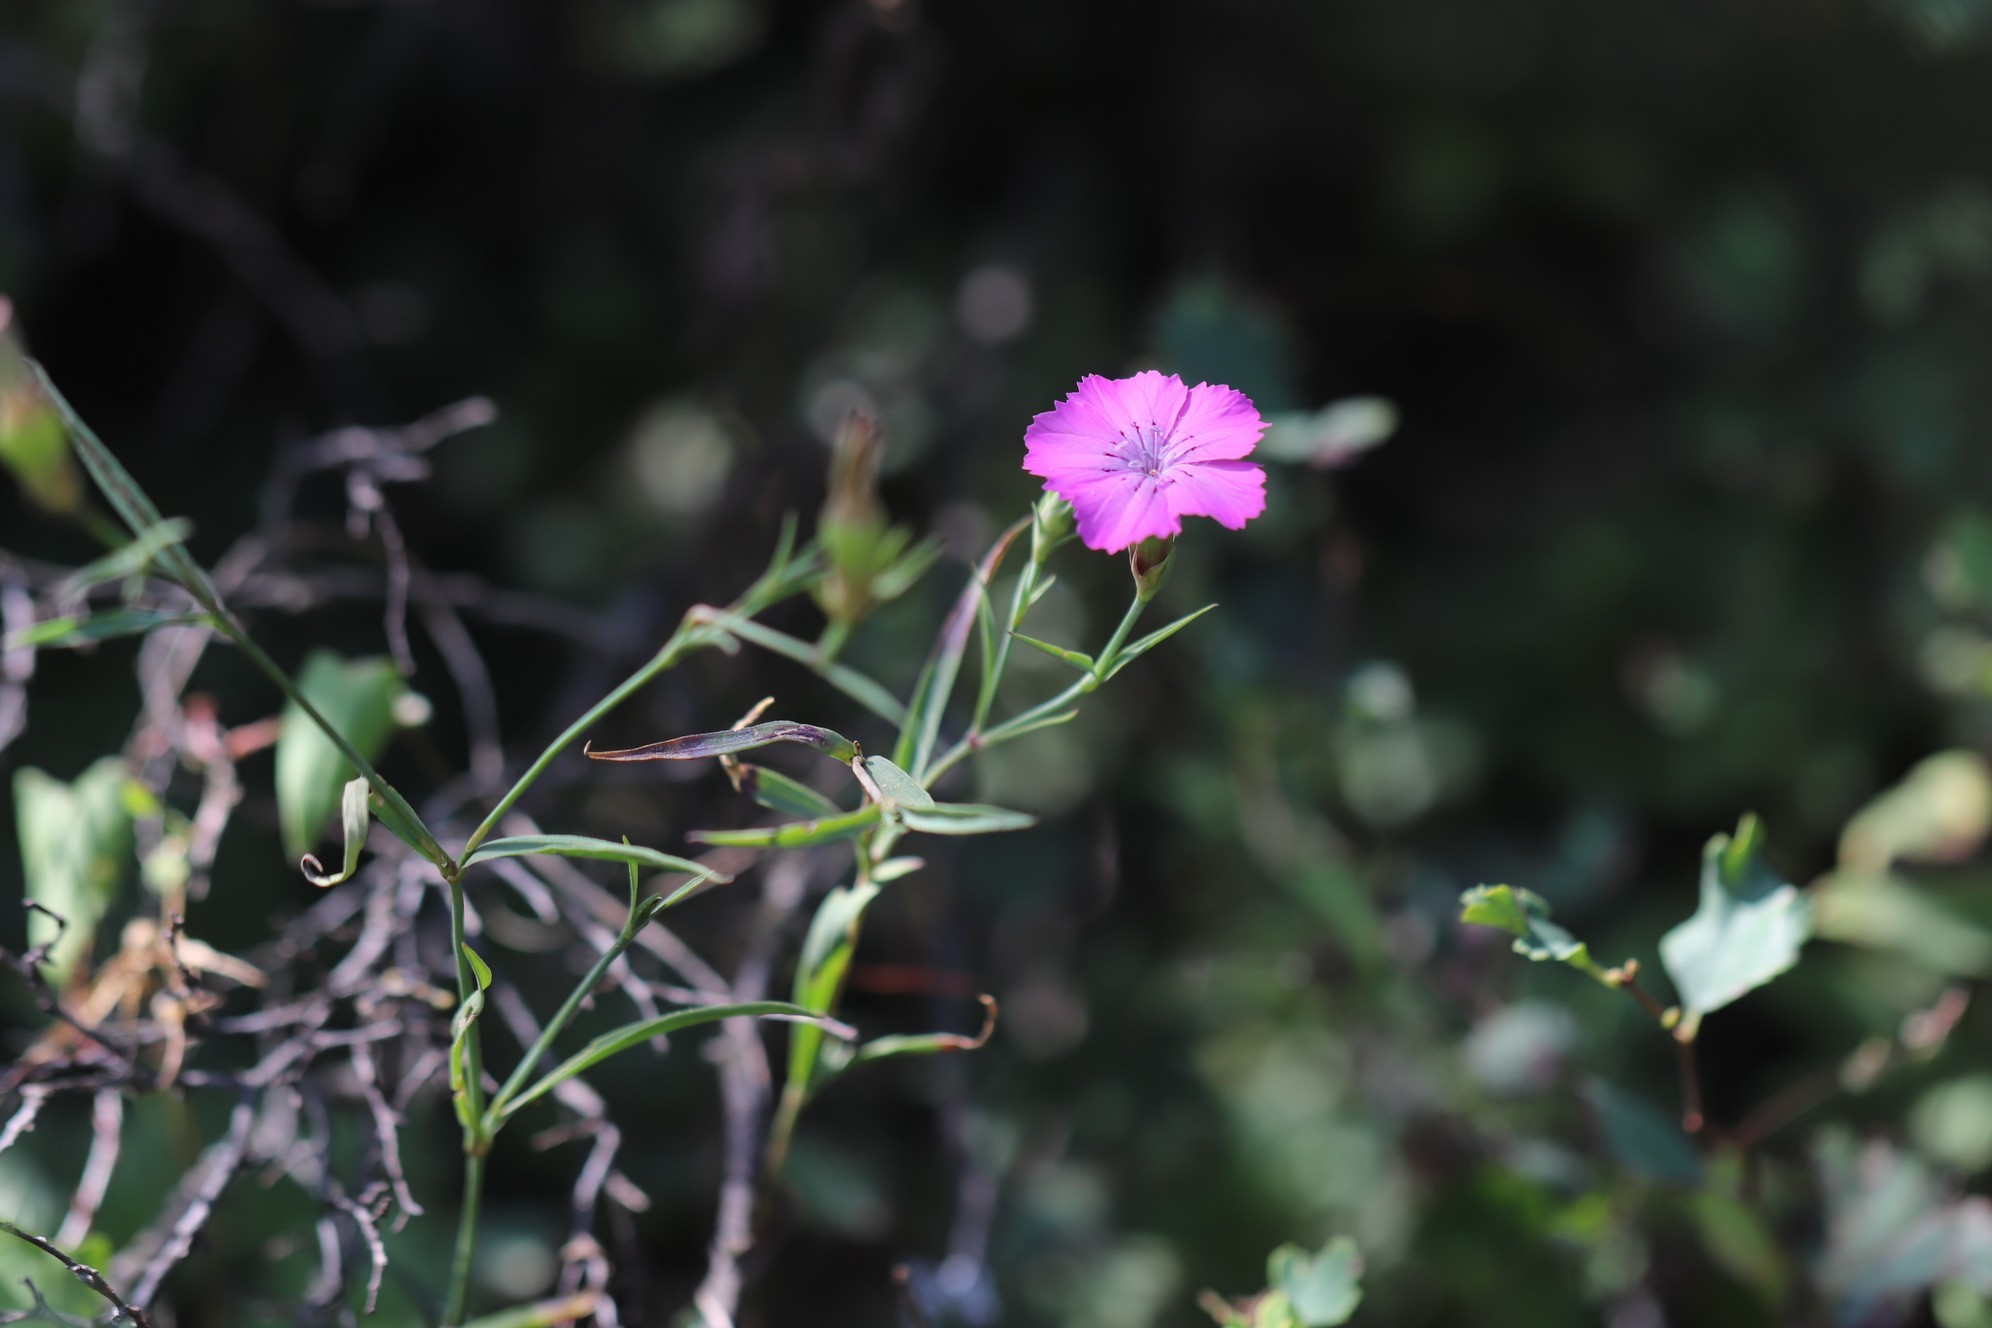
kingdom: Plantae
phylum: Tracheophyta
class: Magnoliopsida
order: Caryophyllales
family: Caryophyllaceae
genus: Dianthus
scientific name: Dianthus chinensis
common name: Rainbow pink
